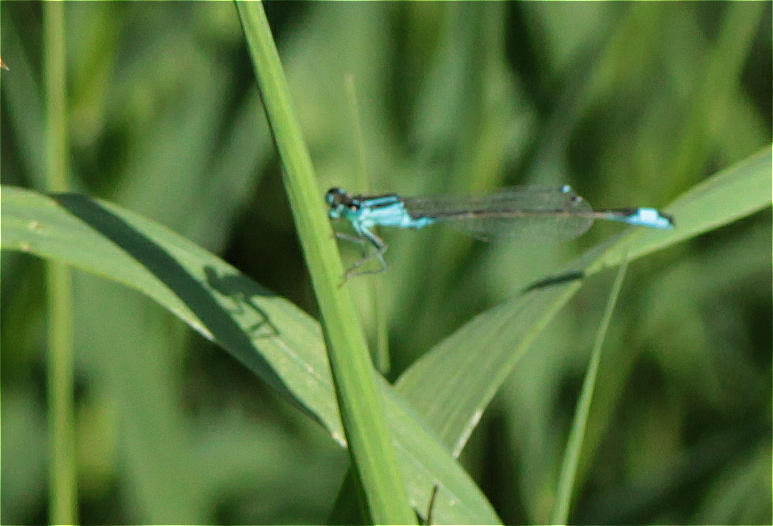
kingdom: Animalia
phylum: Arthropoda
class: Insecta
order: Odonata
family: Coenagrionidae
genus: Ischnura
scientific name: Ischnura elegans
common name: Blue-tailed damselfly
